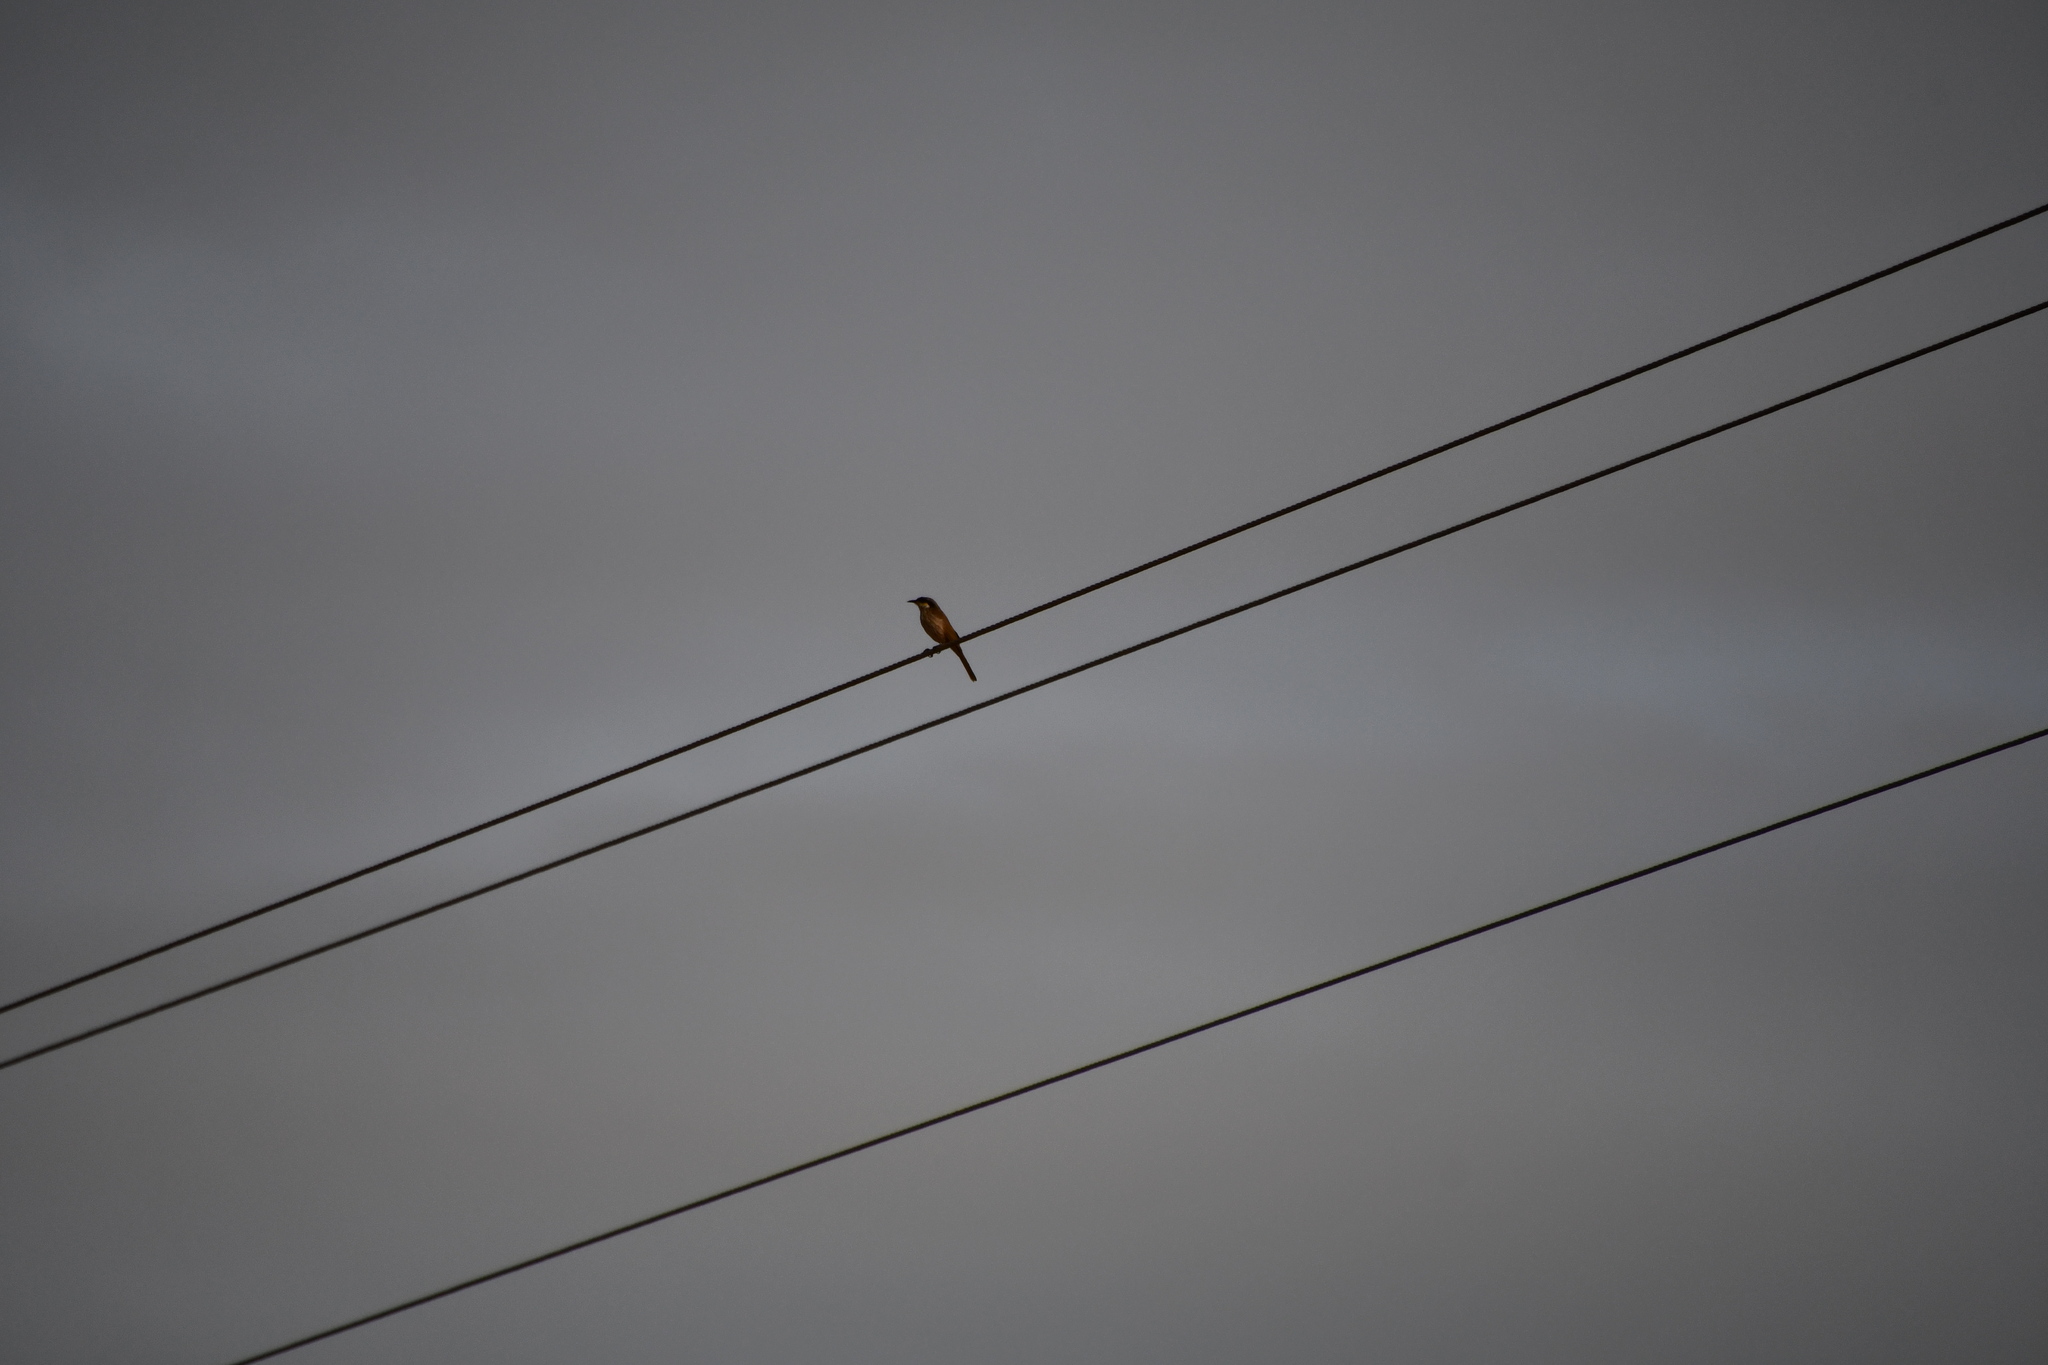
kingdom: Animalia
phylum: Chordata
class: Aves
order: Passeriformes
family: Meliphagidae
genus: Gavicalis
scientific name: Gavicalis virescens
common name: Singing honeyeater
